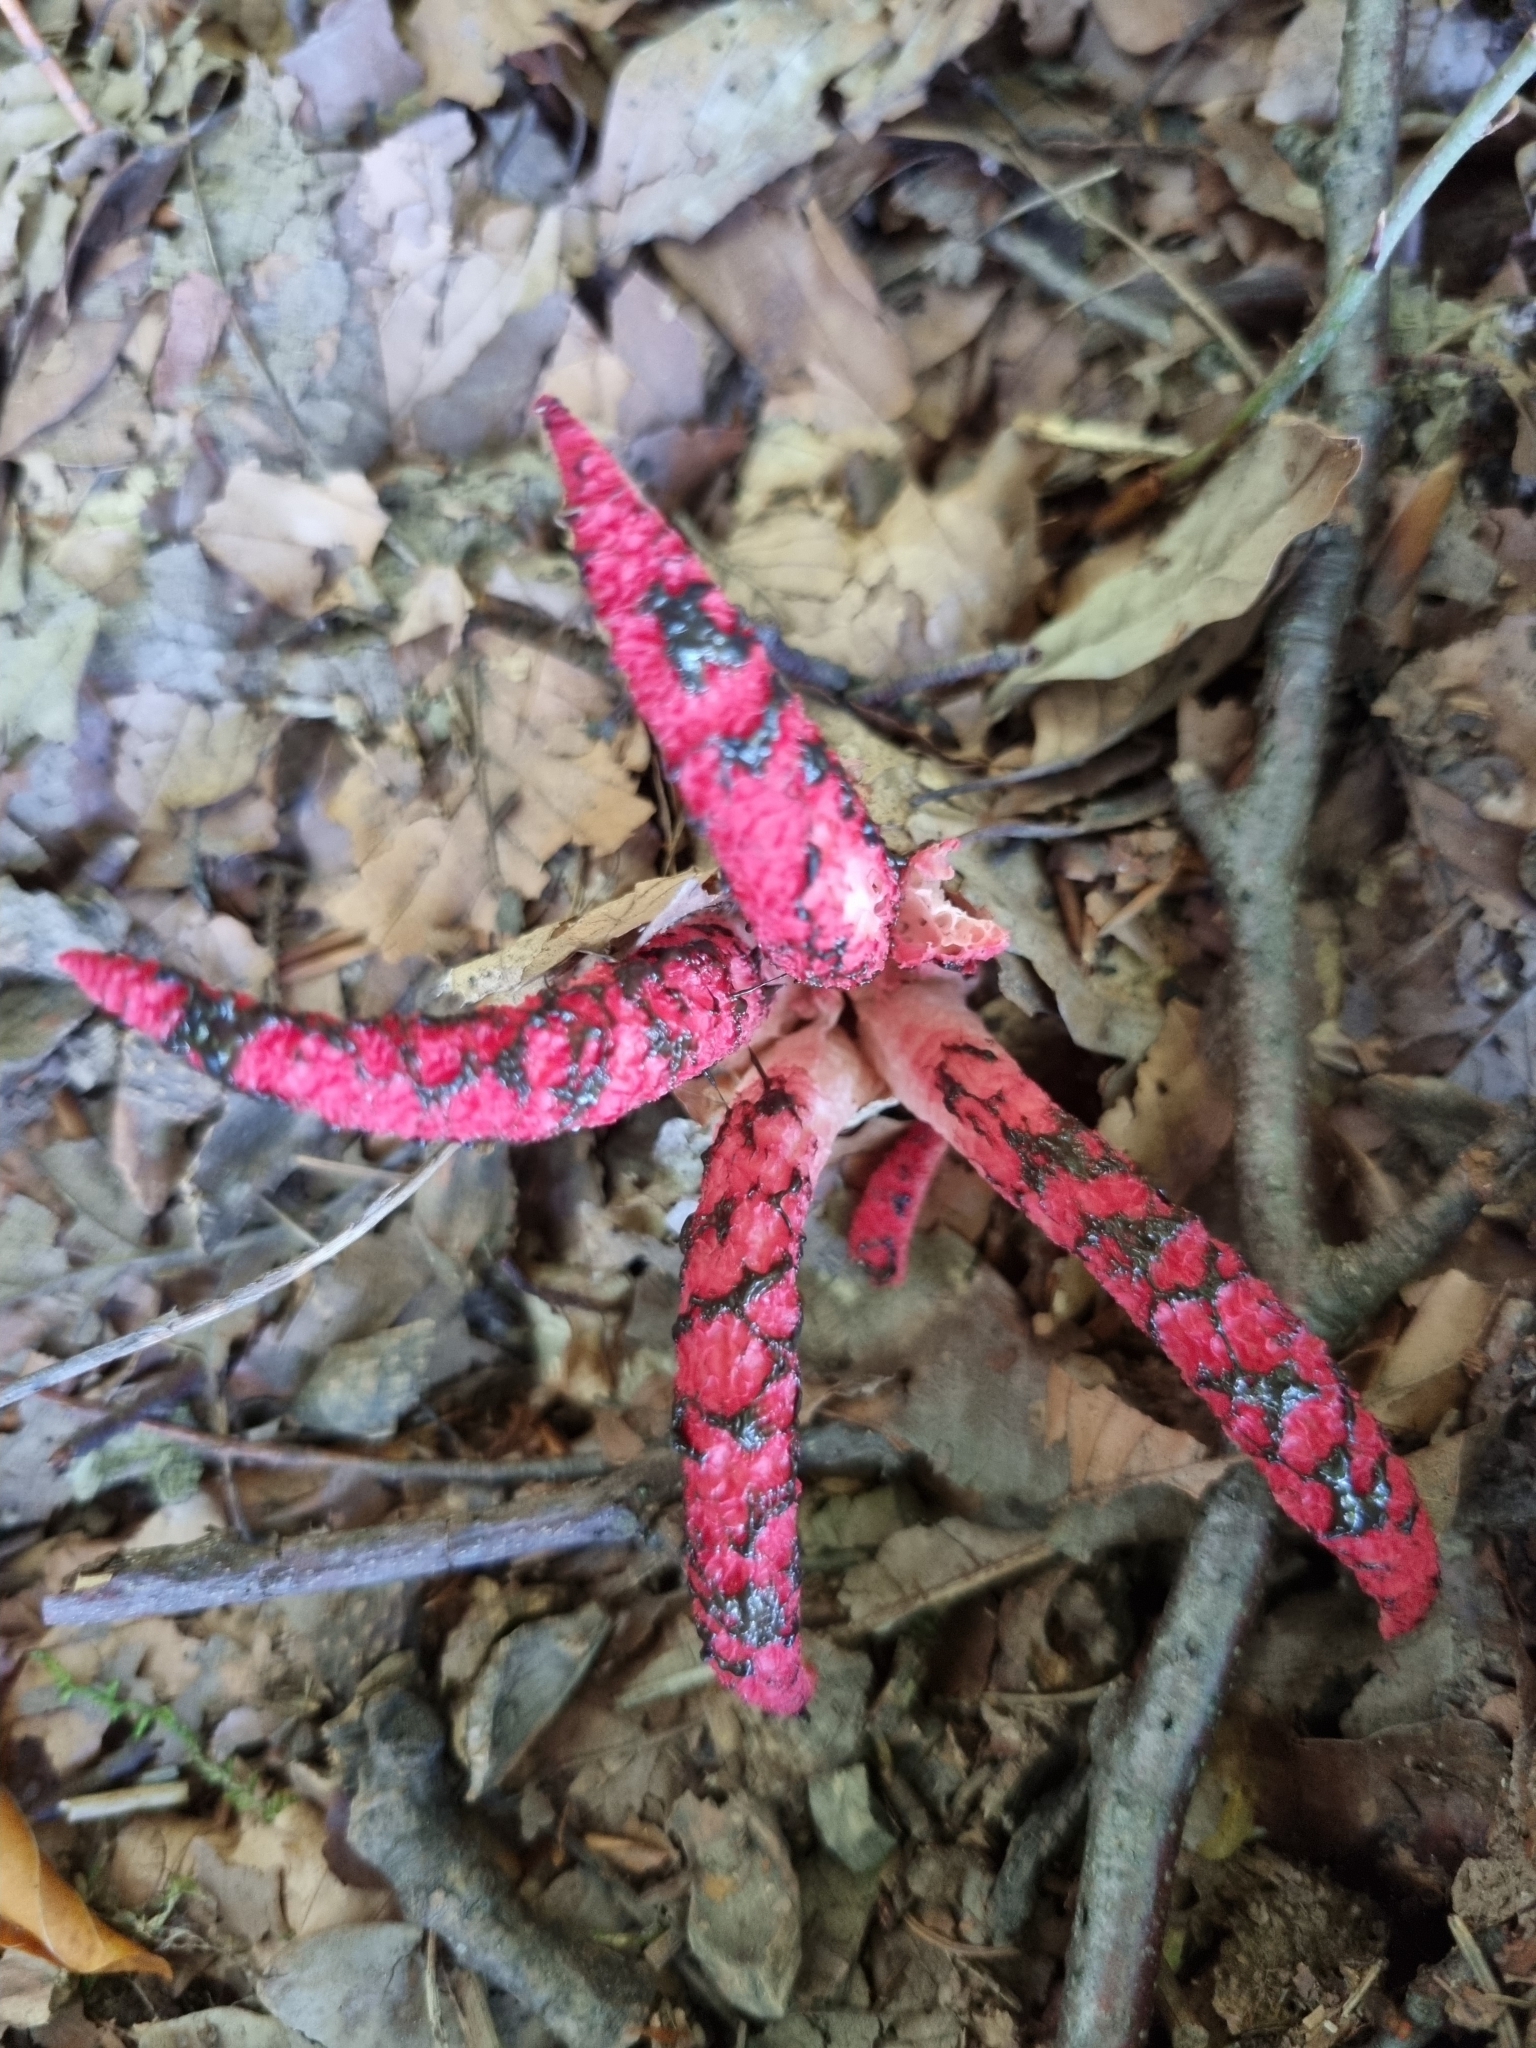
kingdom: Fungi
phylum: Basidiomycota
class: Agaricomycetes
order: Phallales
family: Phallaceae
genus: Clathrus
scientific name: Clathrus archeri
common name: Devil's fingers
